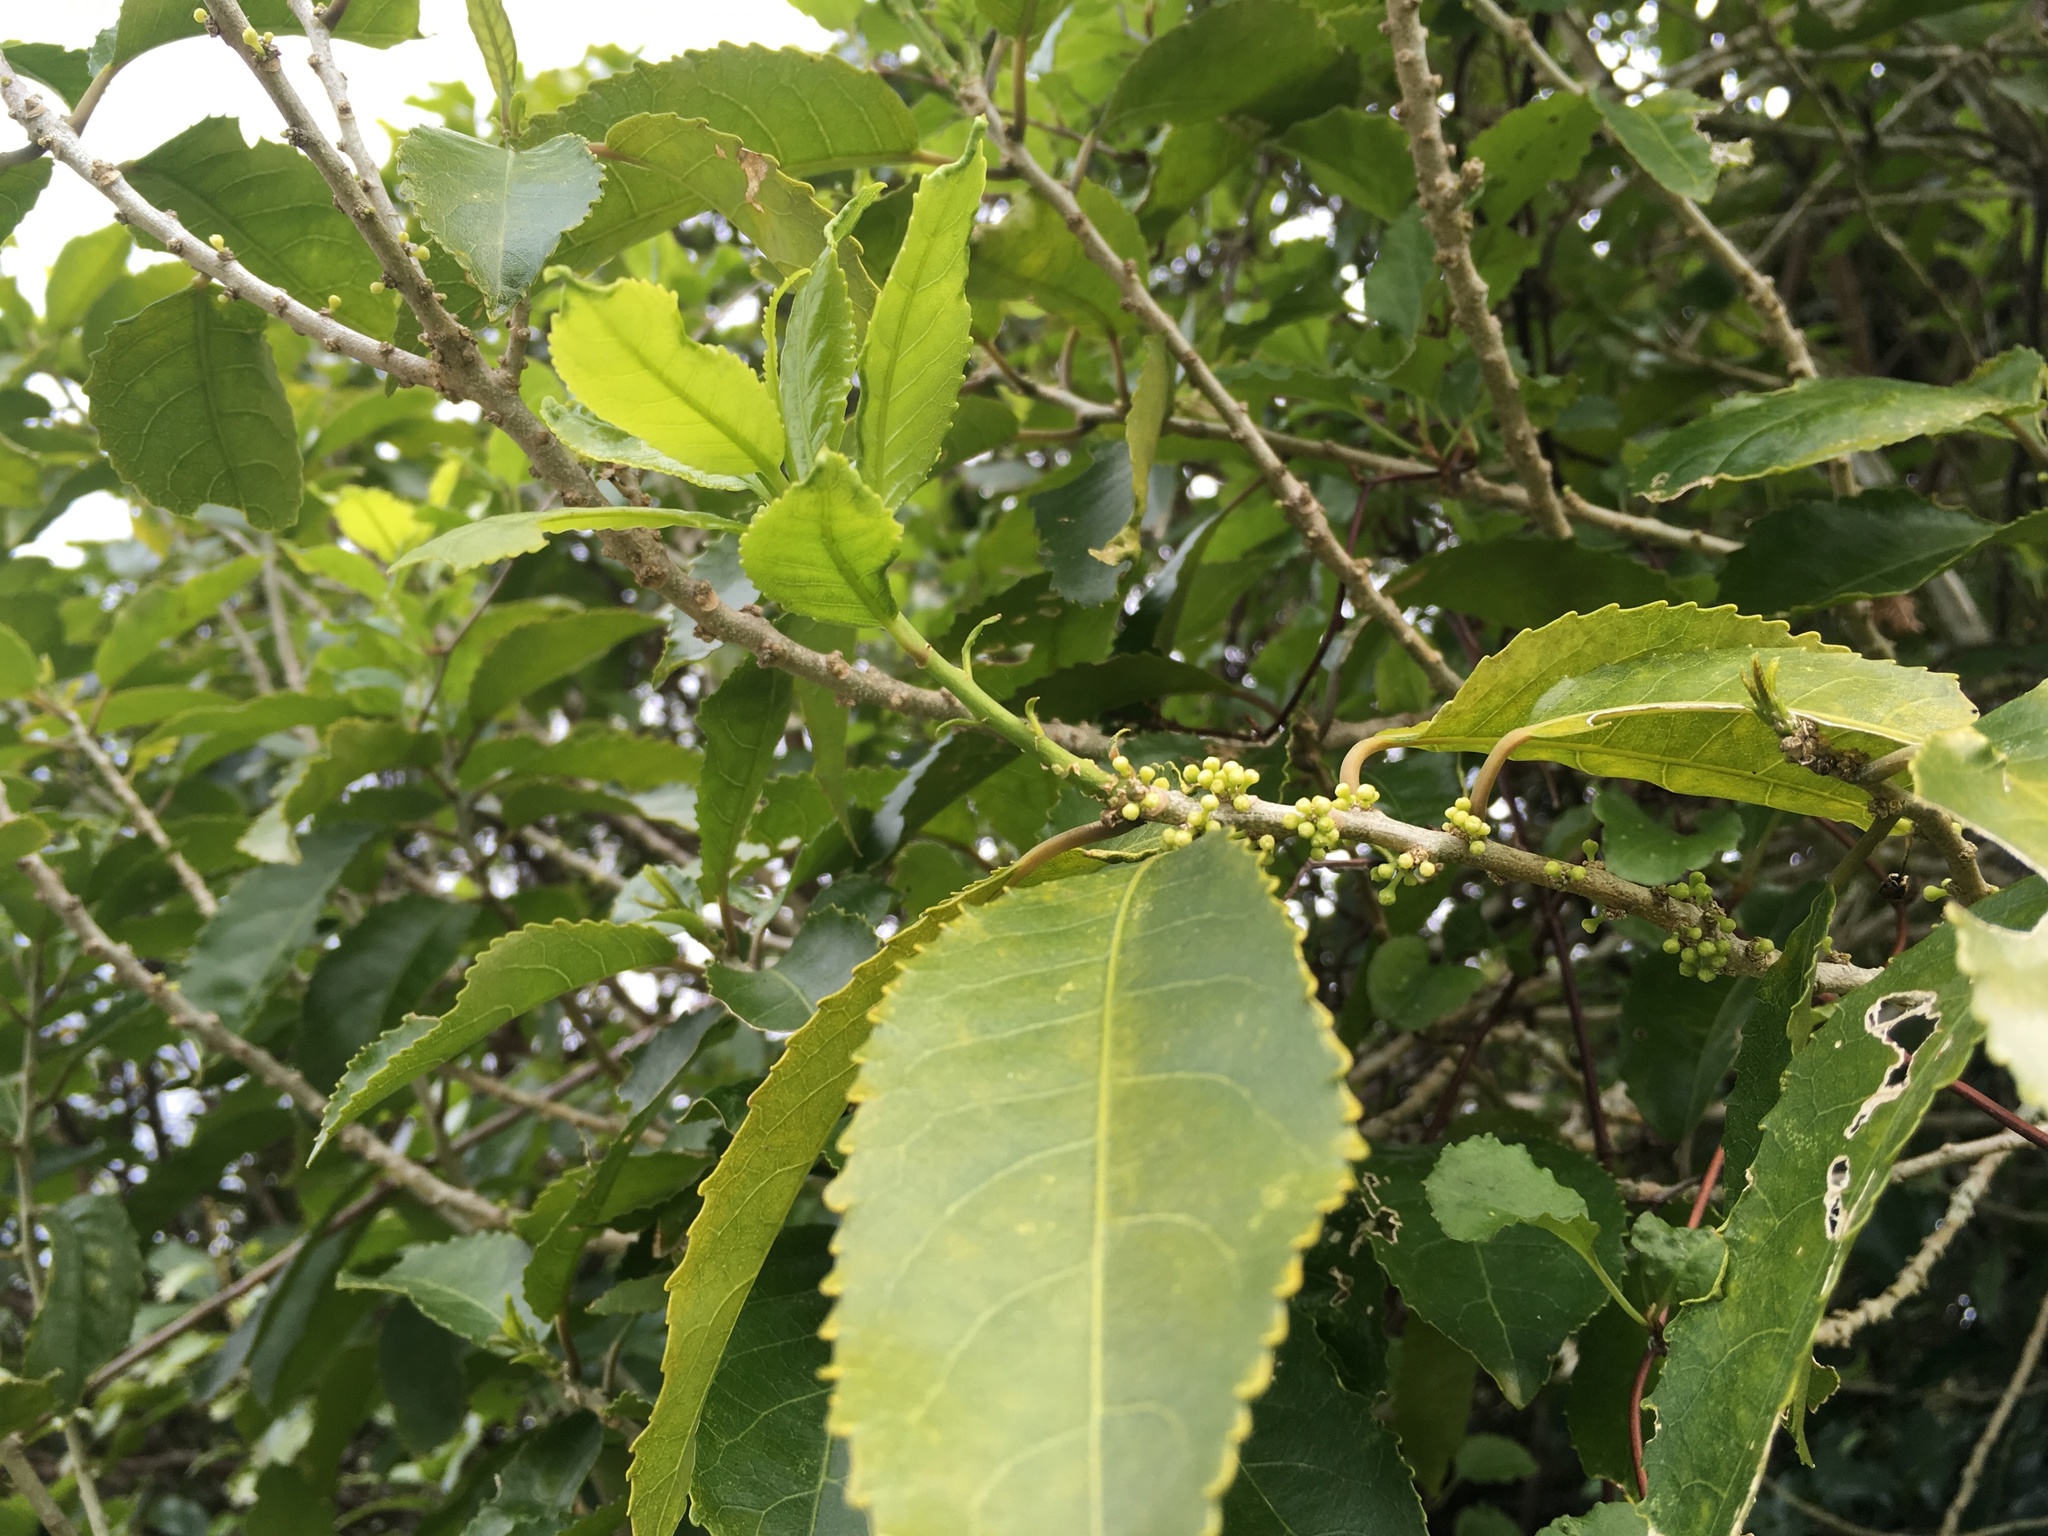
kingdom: Plantae
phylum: Tracheophyta
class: Magnoliopsida
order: Malpighiales
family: Violaceae
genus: Melicytus
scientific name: Melicytus ramiflorus
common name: Mahoe
